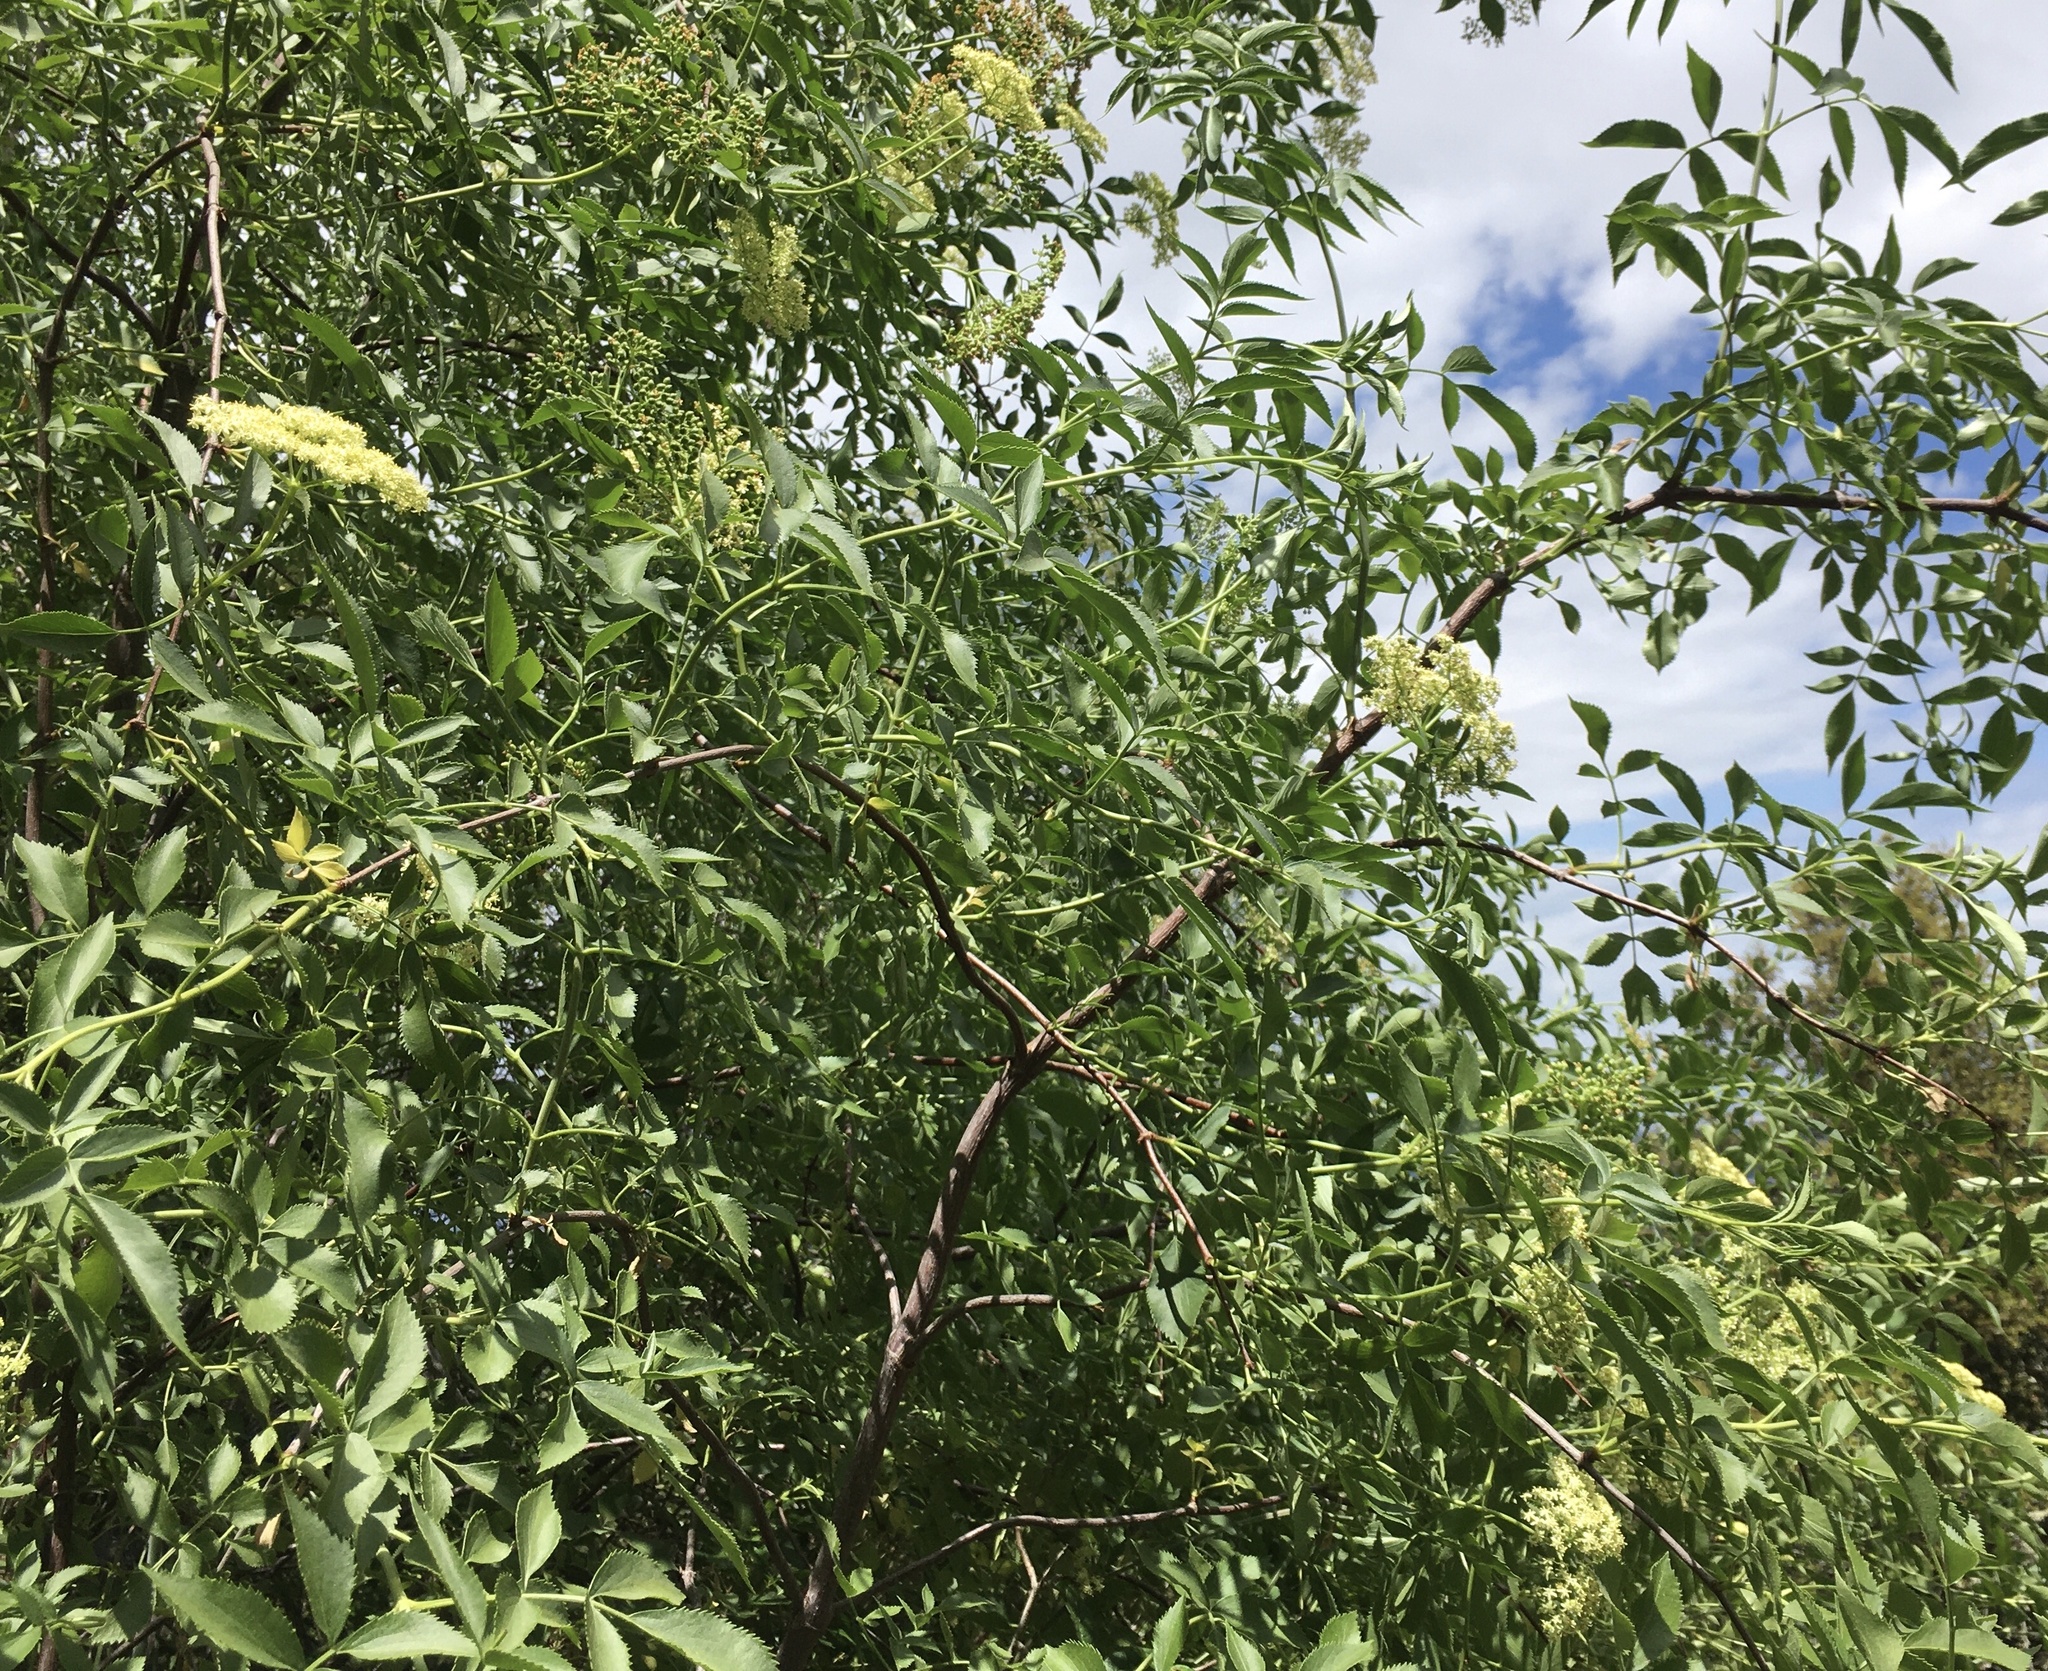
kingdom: Plantae
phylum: Tracheophyta
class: Magnoliopsida
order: Dipsacales
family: Viburnaceae
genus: Sambucus
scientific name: Sambucus cerulea
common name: Blue elder
